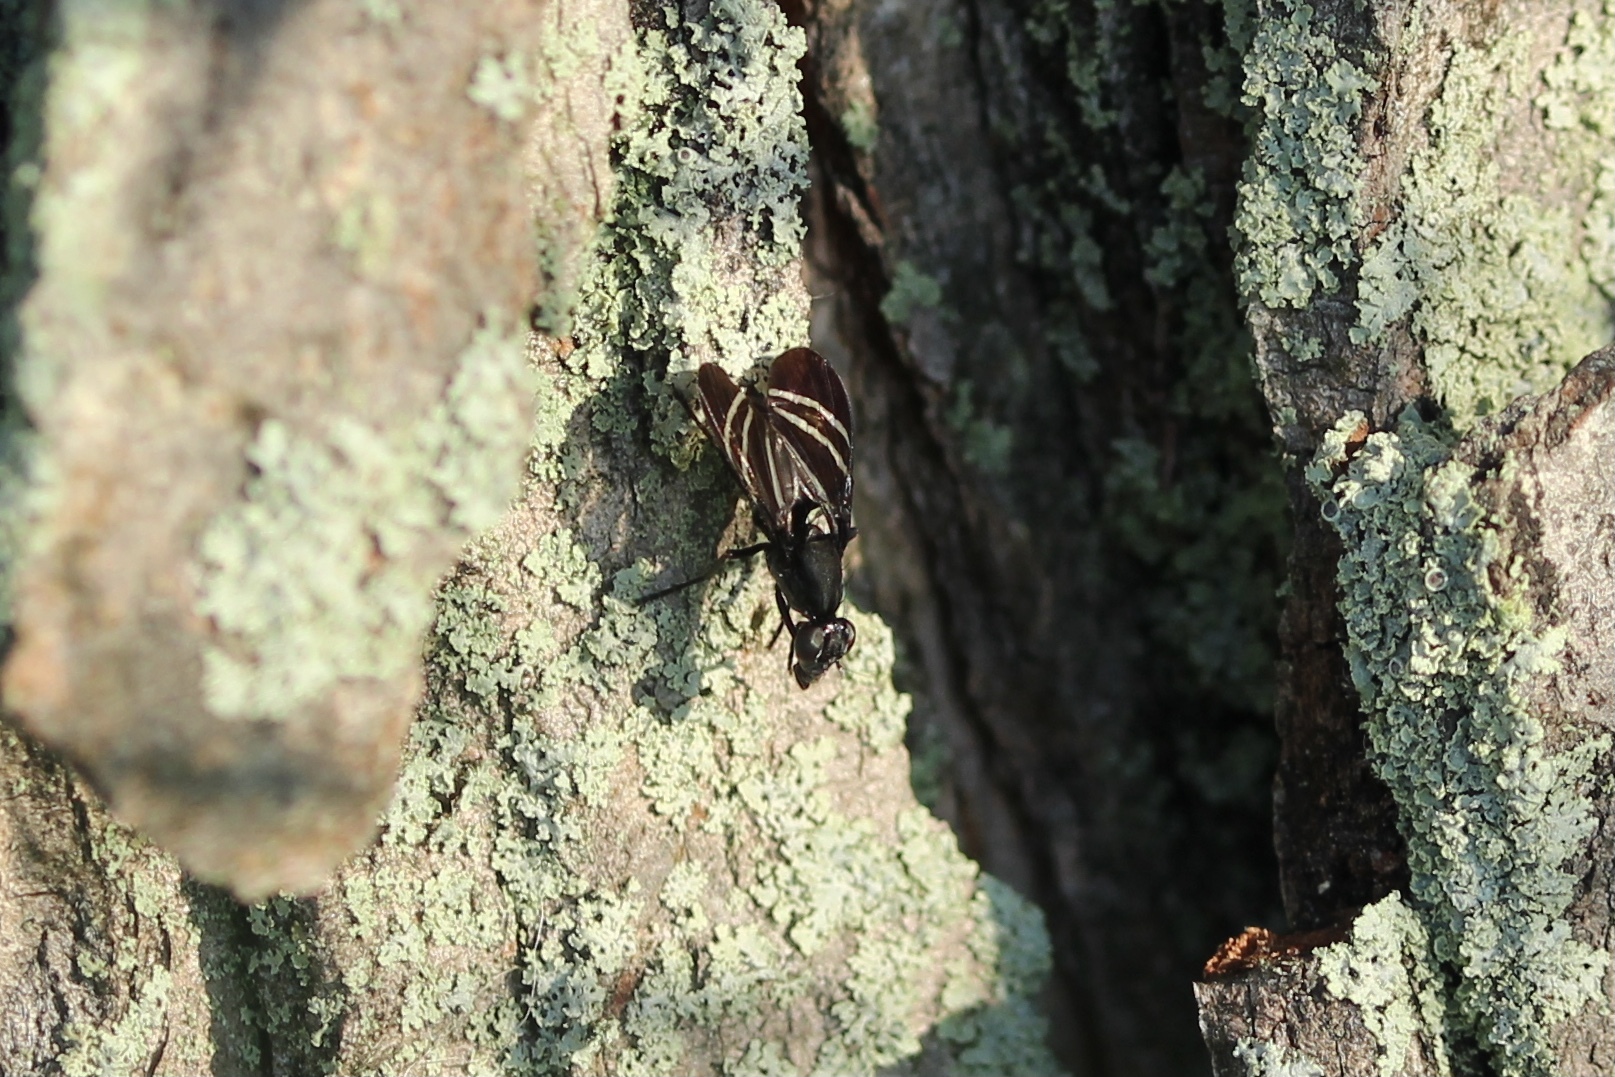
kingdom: Animalia
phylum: Arthropoda
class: Insecta
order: Diptera
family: Ulidiidae
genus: Tritoxa
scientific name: Tritoxa flexa
